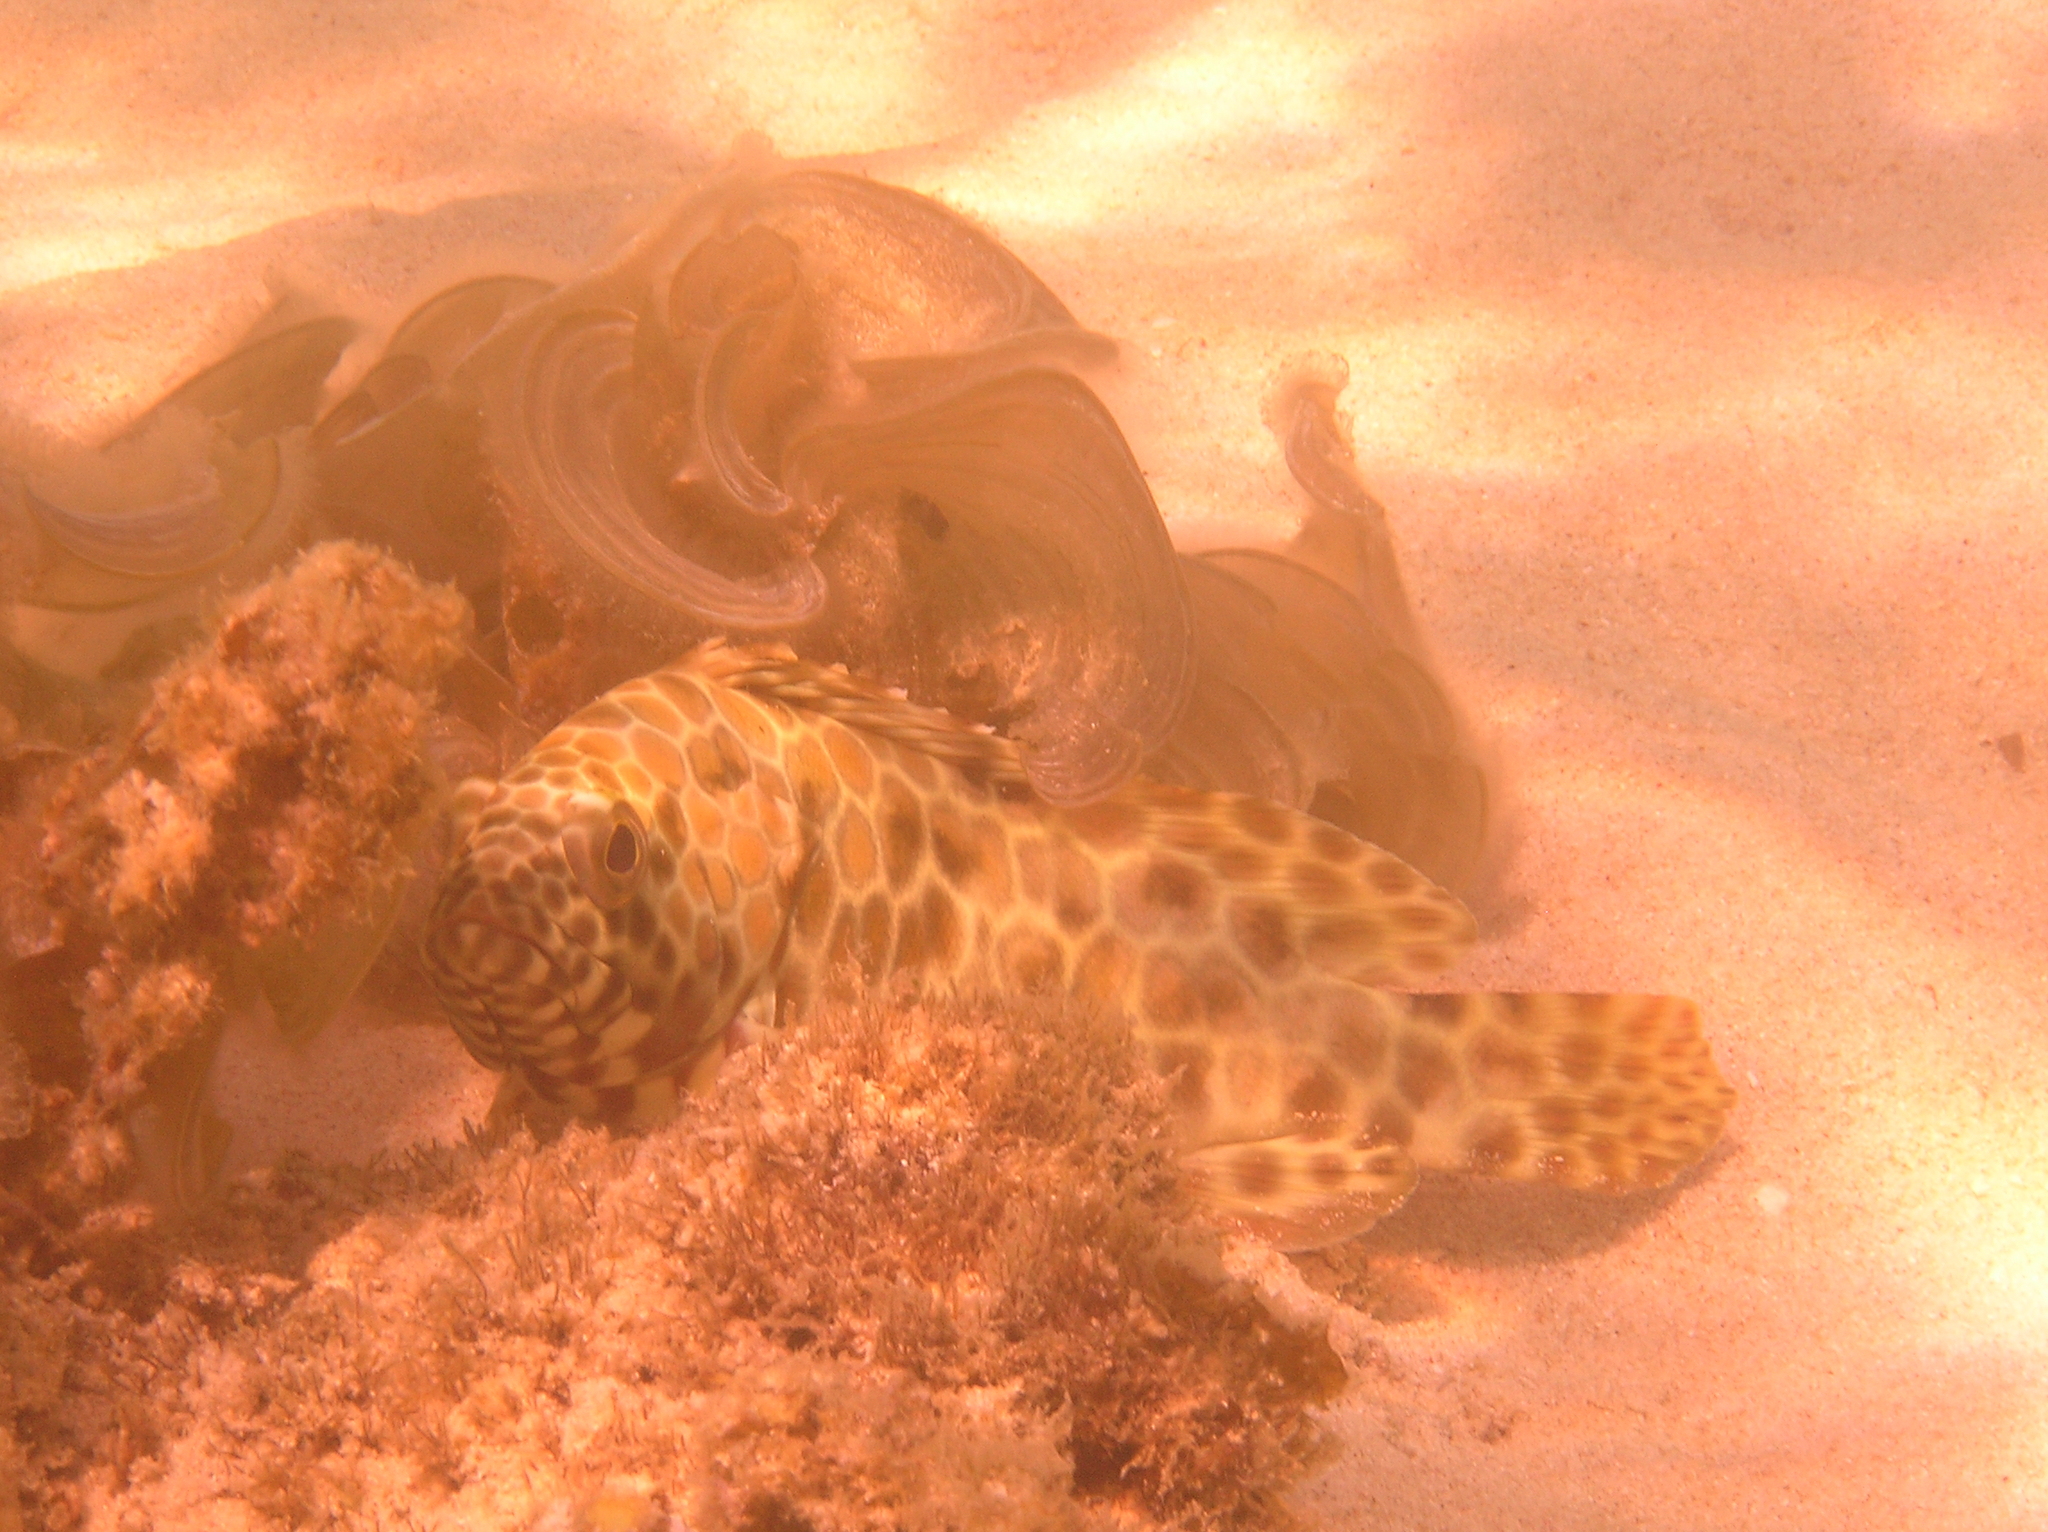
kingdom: Animalia
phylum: Chordata
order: Perciformes
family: Serranidae
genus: Epinephelus
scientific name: Epinephelus quoyanus
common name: Longfin grouper
